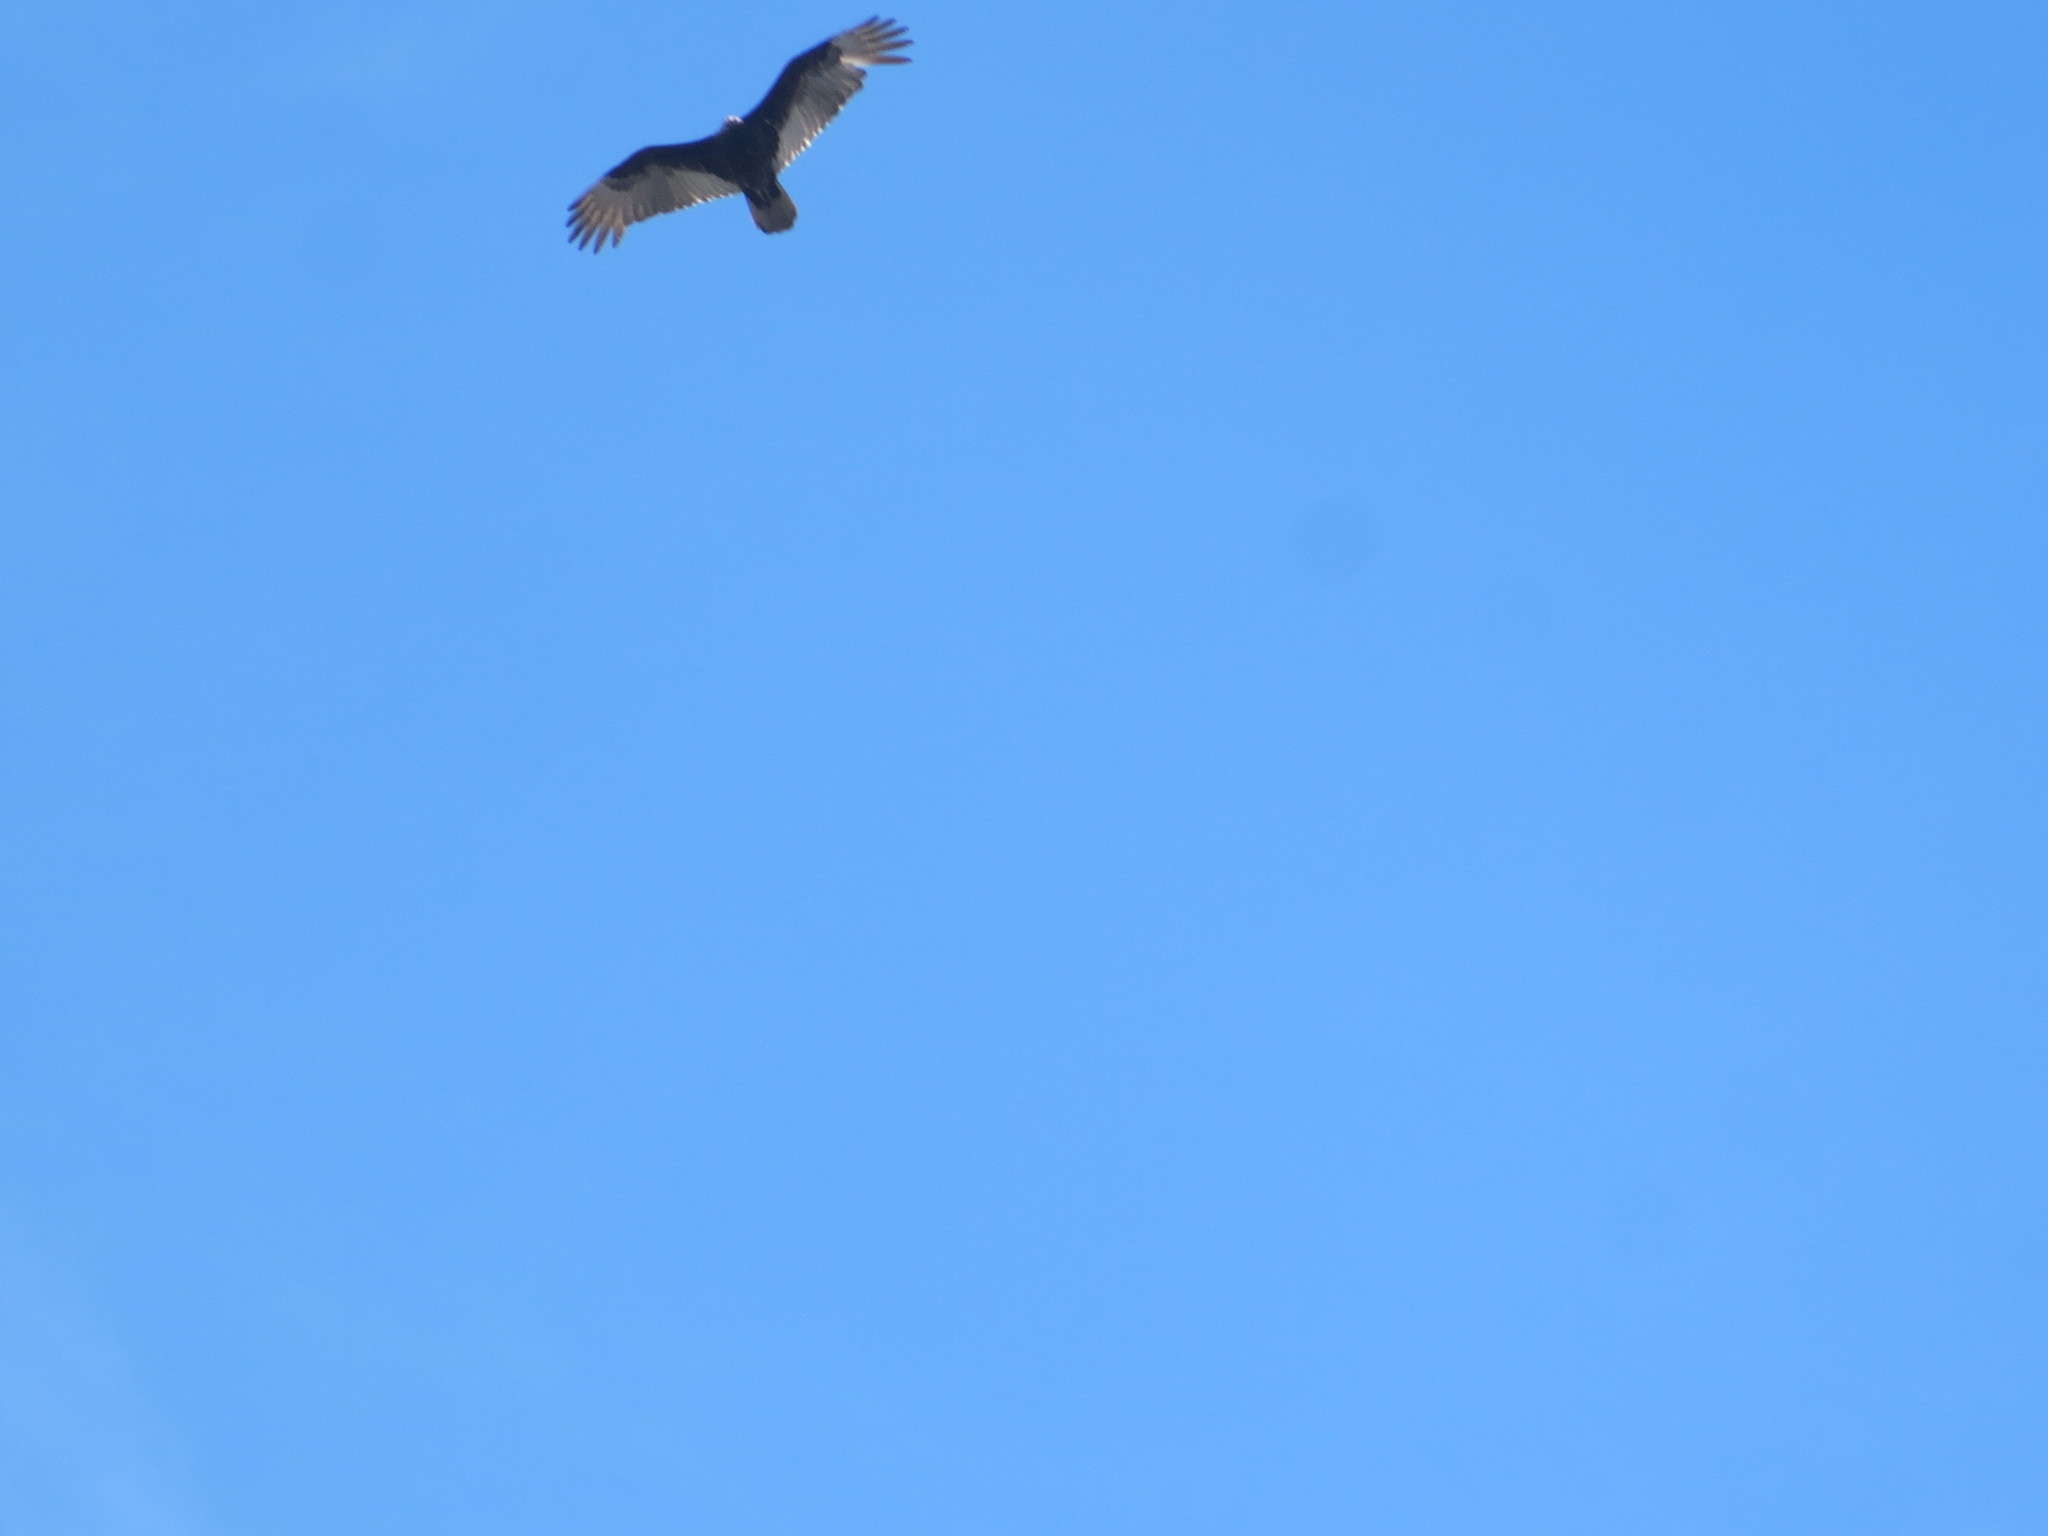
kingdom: Animalia
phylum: Chordata
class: Aves
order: Accipitriformes
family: Cathartidae
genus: Cathartes
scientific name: Cathartes aura
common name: Turkey vulture
